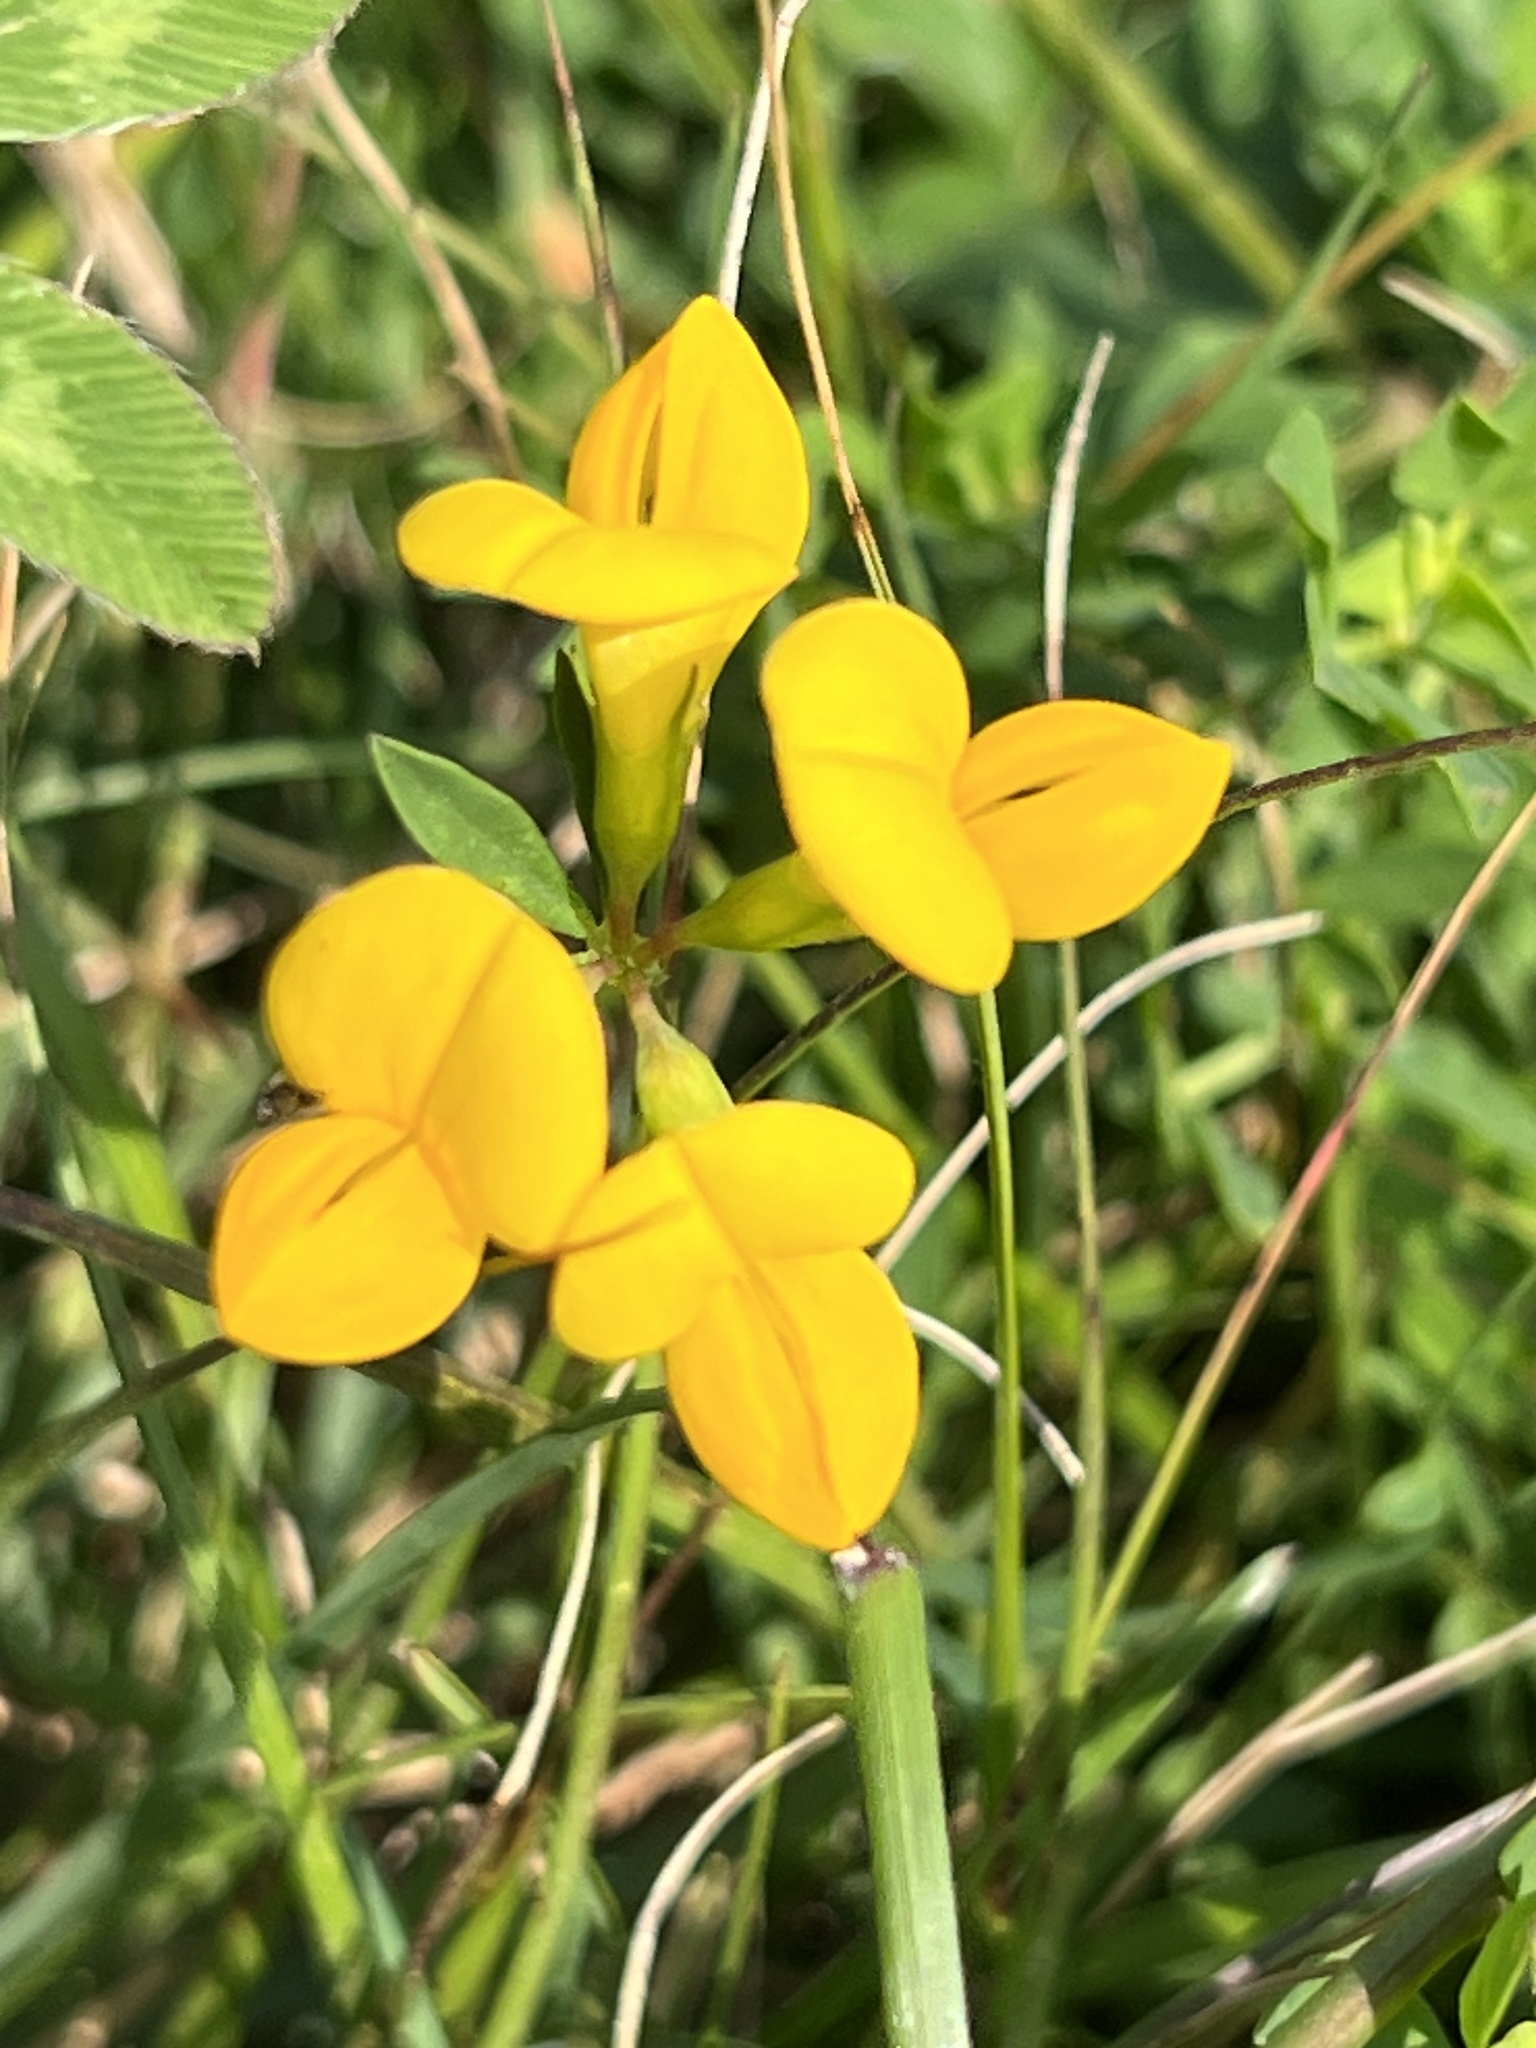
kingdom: Plantae
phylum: Tracheophyta
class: Magnoliopsida
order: Fabales
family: Fabaceae
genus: Lotus
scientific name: Lotus corniculatus
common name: Common bird's-foot-trefoil
